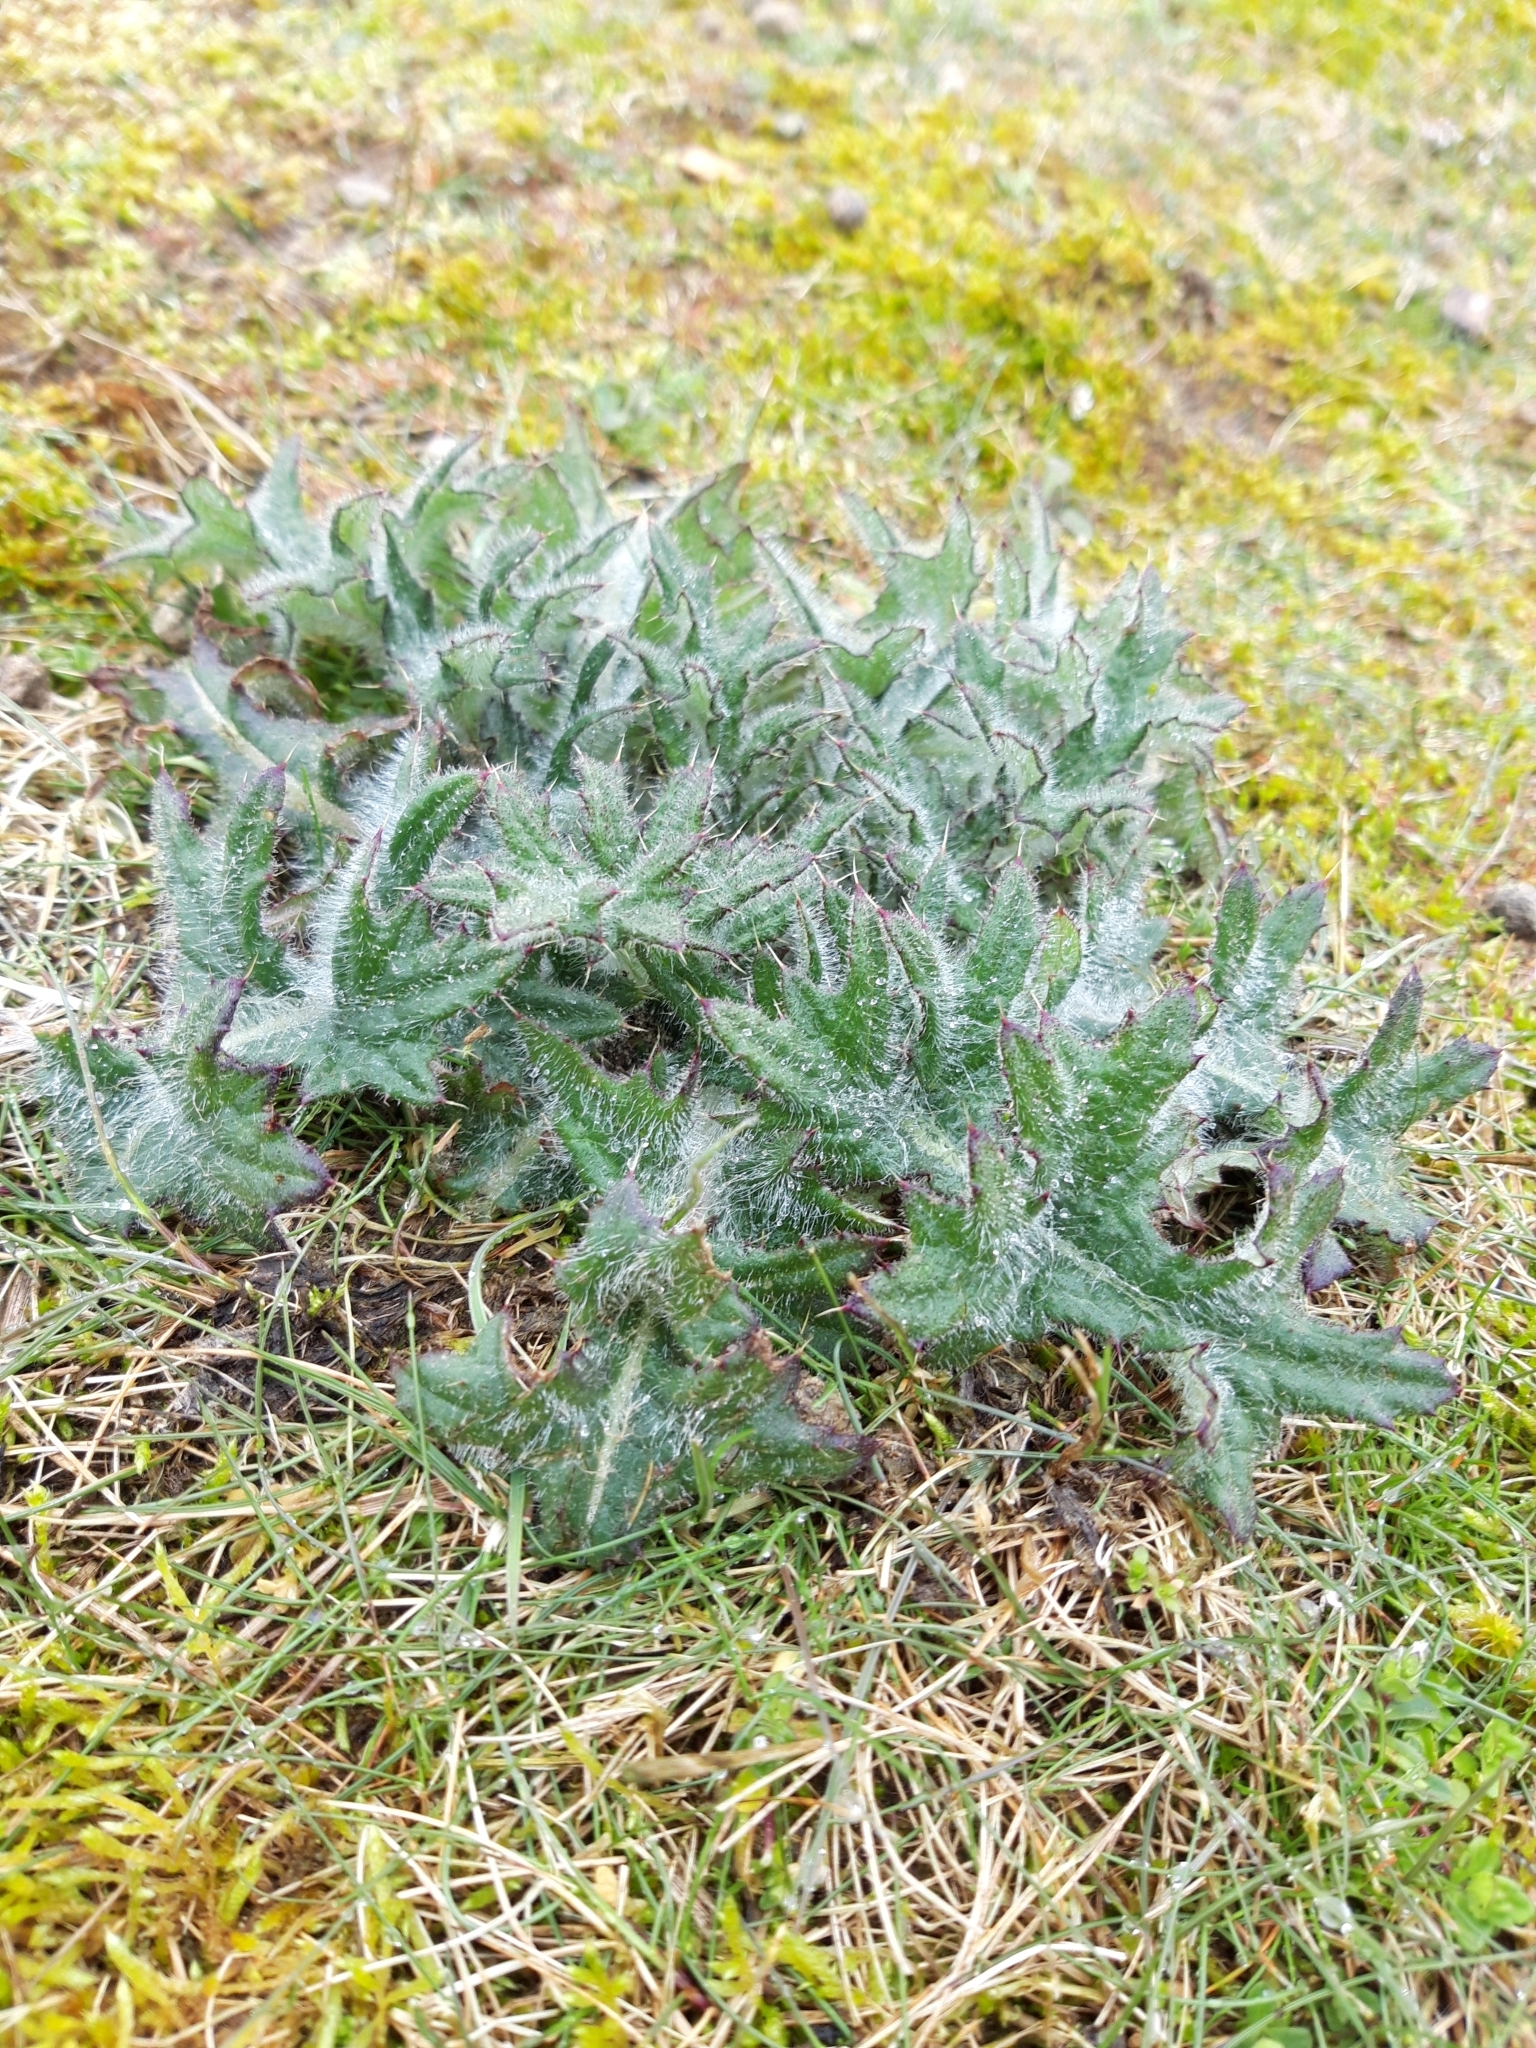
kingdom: Plantae
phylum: Tracheophyta
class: Magnoliopsida
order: Asterales
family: Asteraceae
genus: Cirsium
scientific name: Cirsium vulgare
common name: Bull thistle
